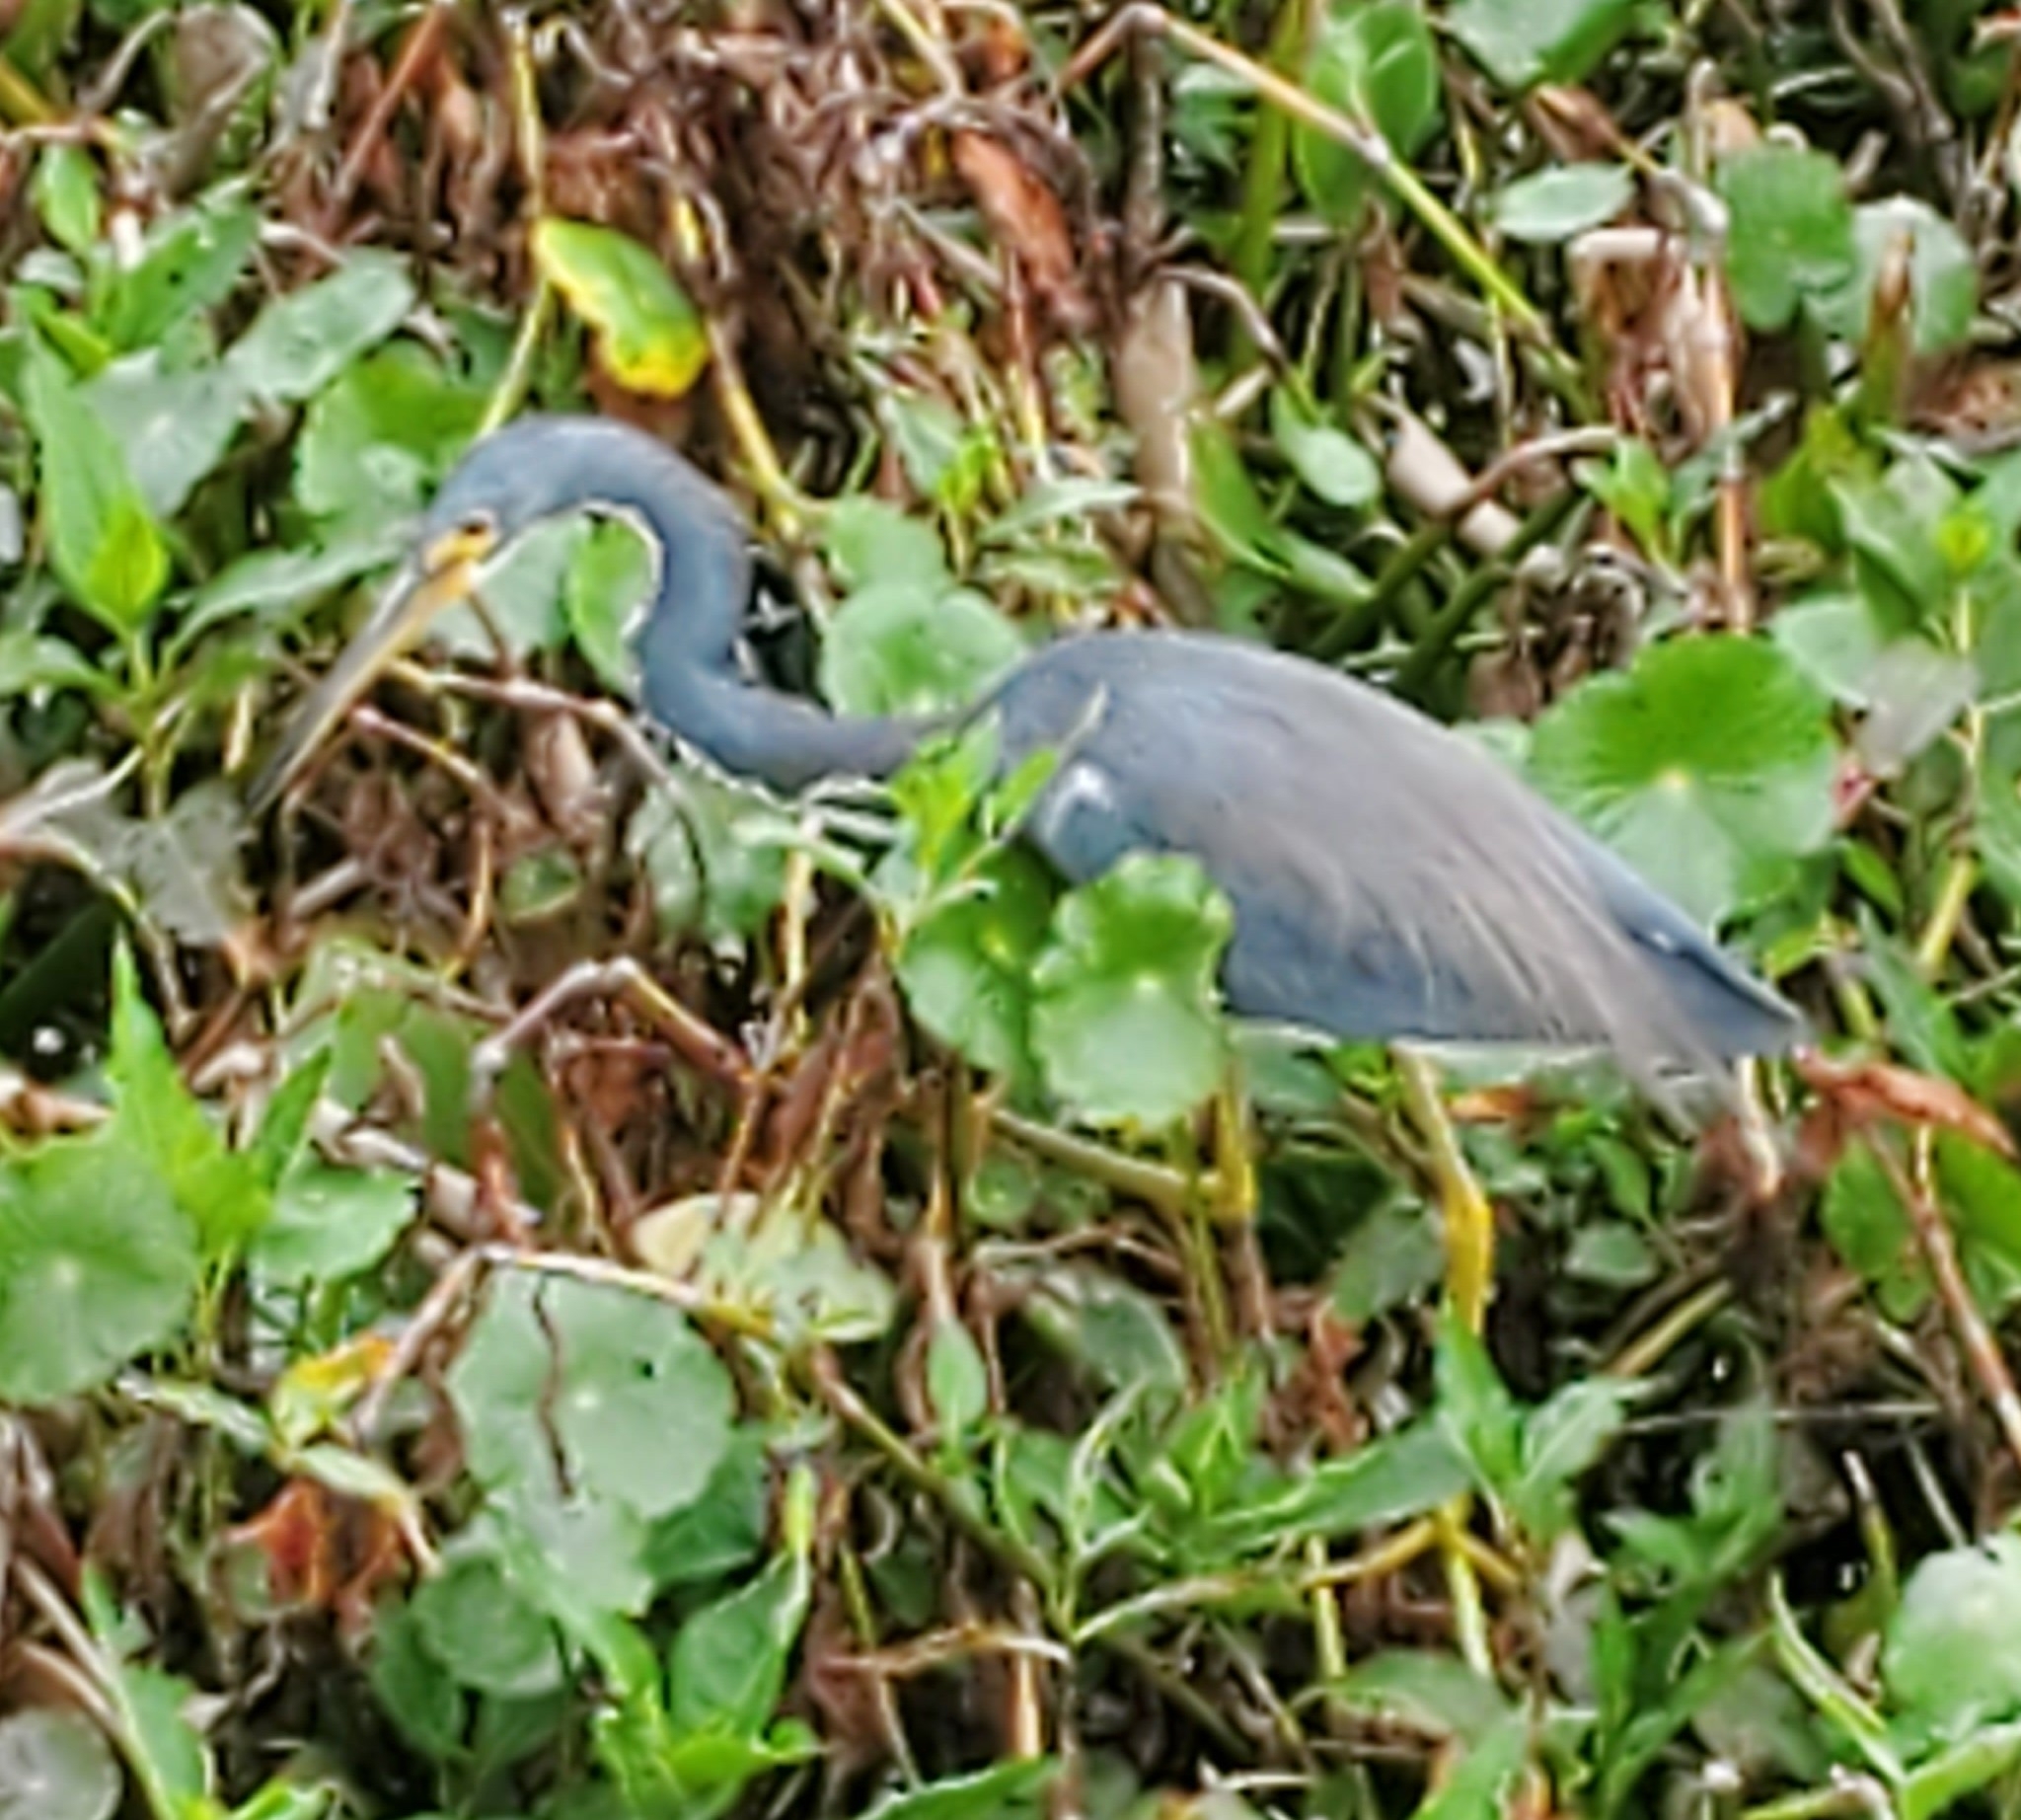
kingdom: Animalia
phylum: Chordata
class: Aves
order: Pelecaniformes
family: Ardeidae
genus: Egretta
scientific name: Egretta tricolor
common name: Tricolored heron
